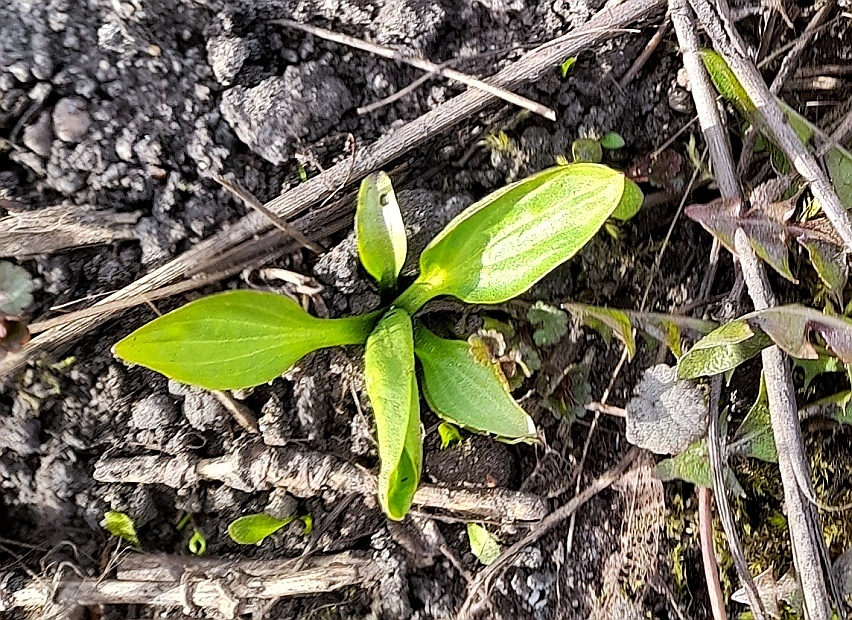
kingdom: Plantae
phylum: Tracheophyta
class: Magnoliopsida
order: Lamiales
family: Plantaginaceae
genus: Plantago
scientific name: Plantago major
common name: Common plantain
